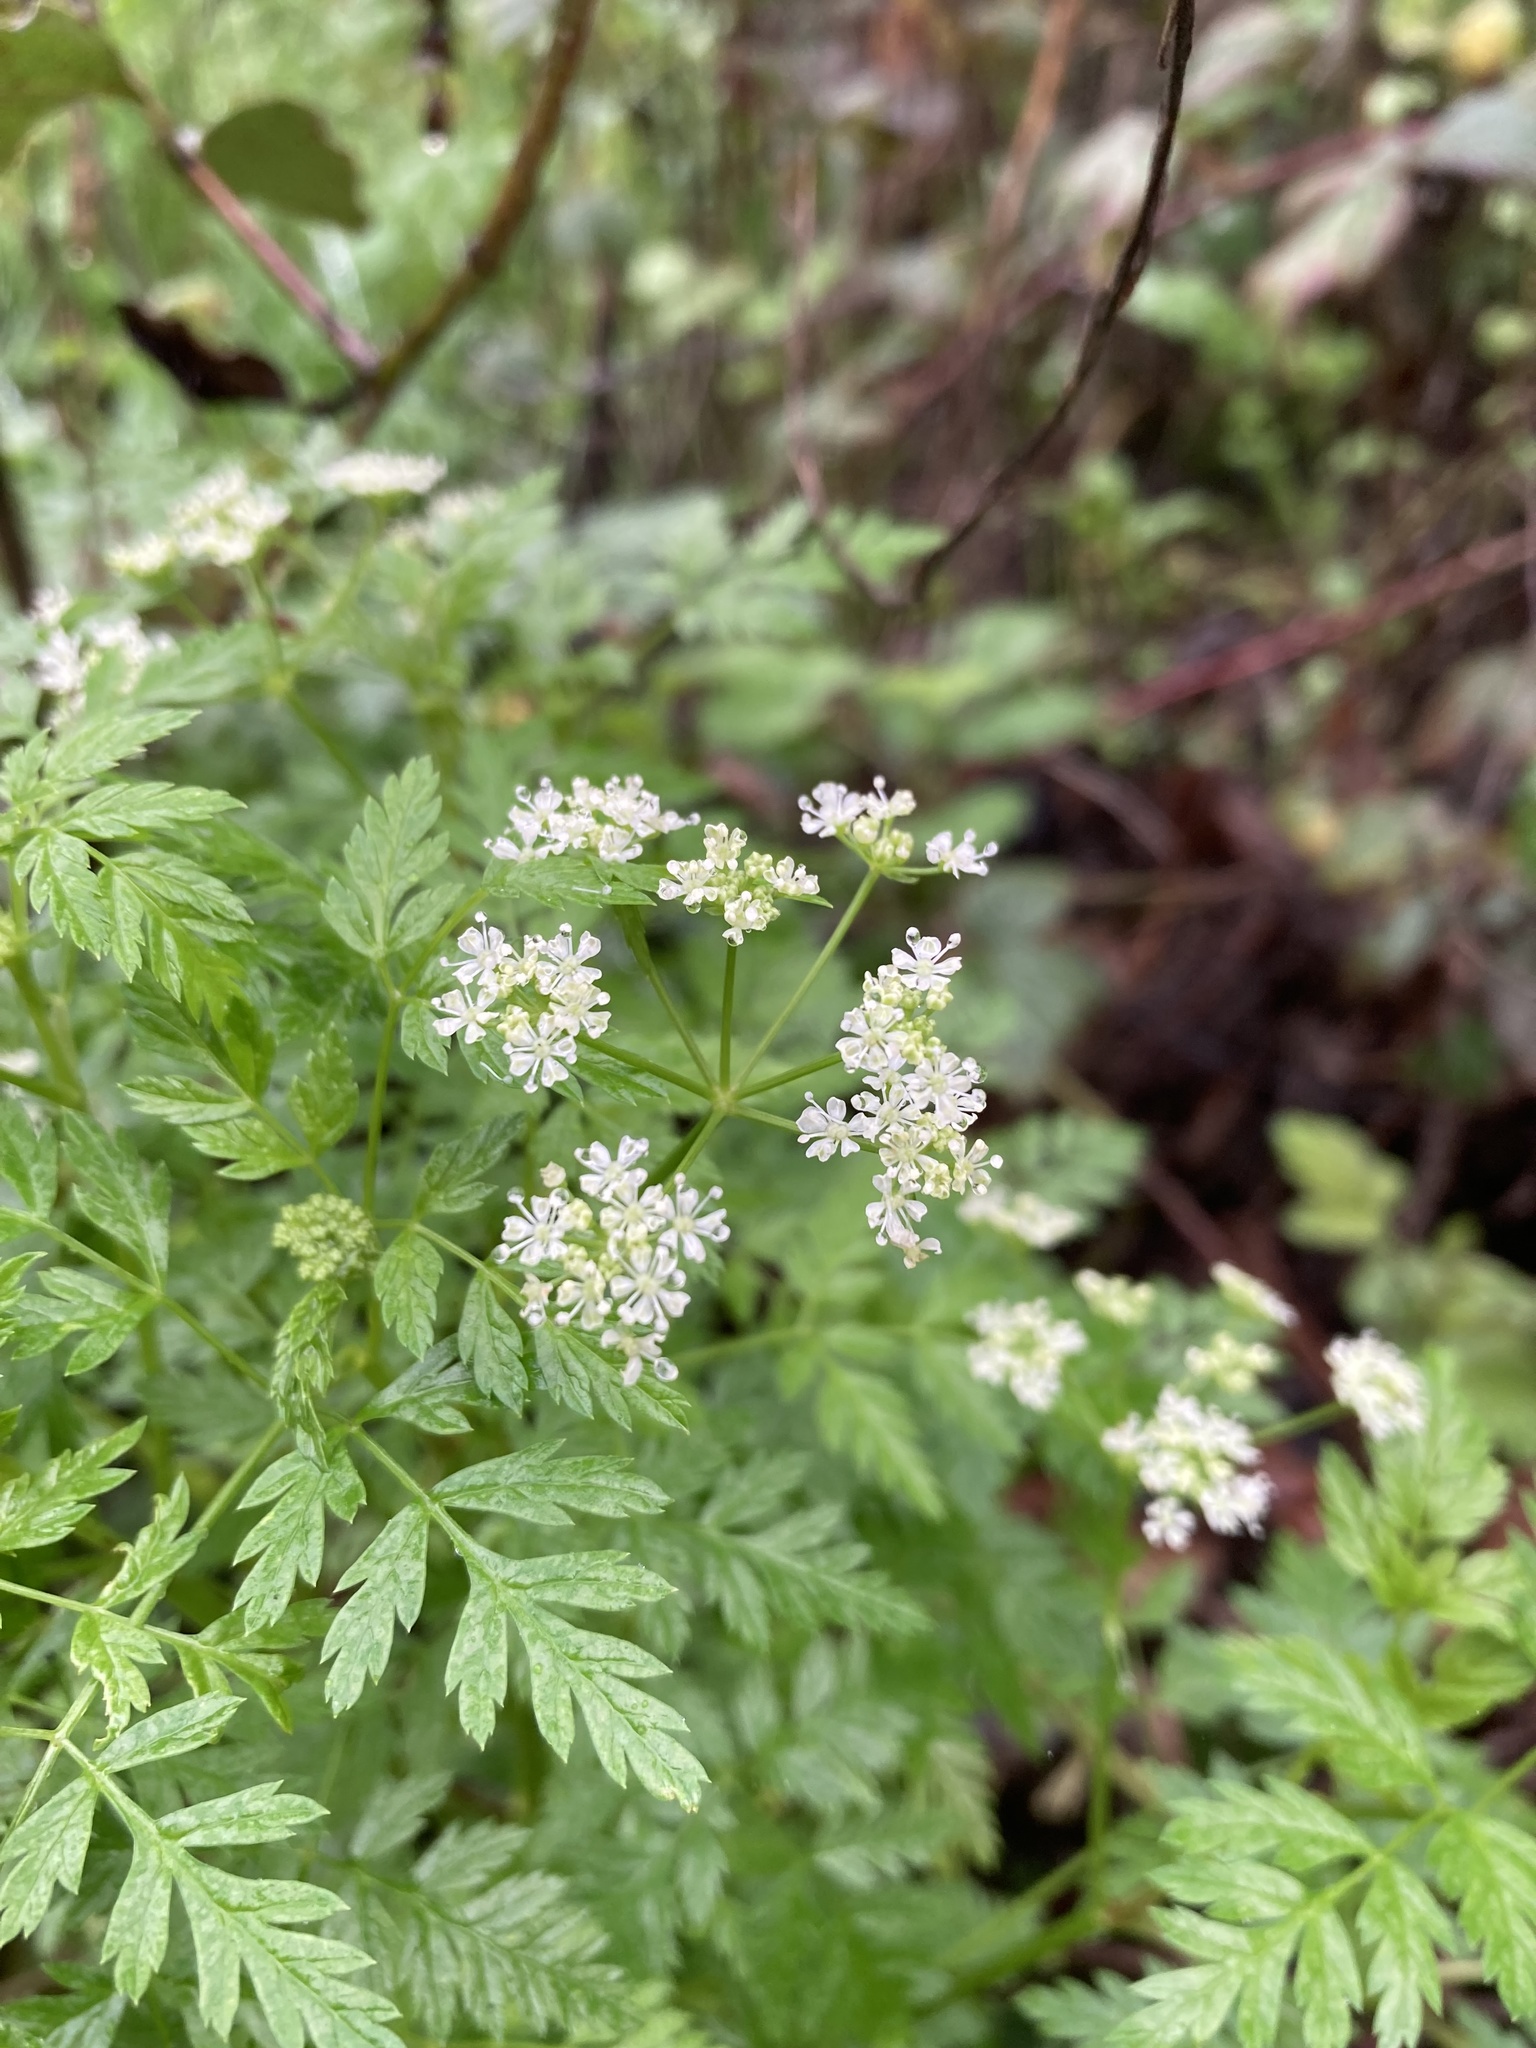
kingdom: Plantae
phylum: Tracheophyta
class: Magnoliopsida
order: Apiales
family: Apiaceae
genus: Conium
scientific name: Conium maculatum
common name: Hemlock
